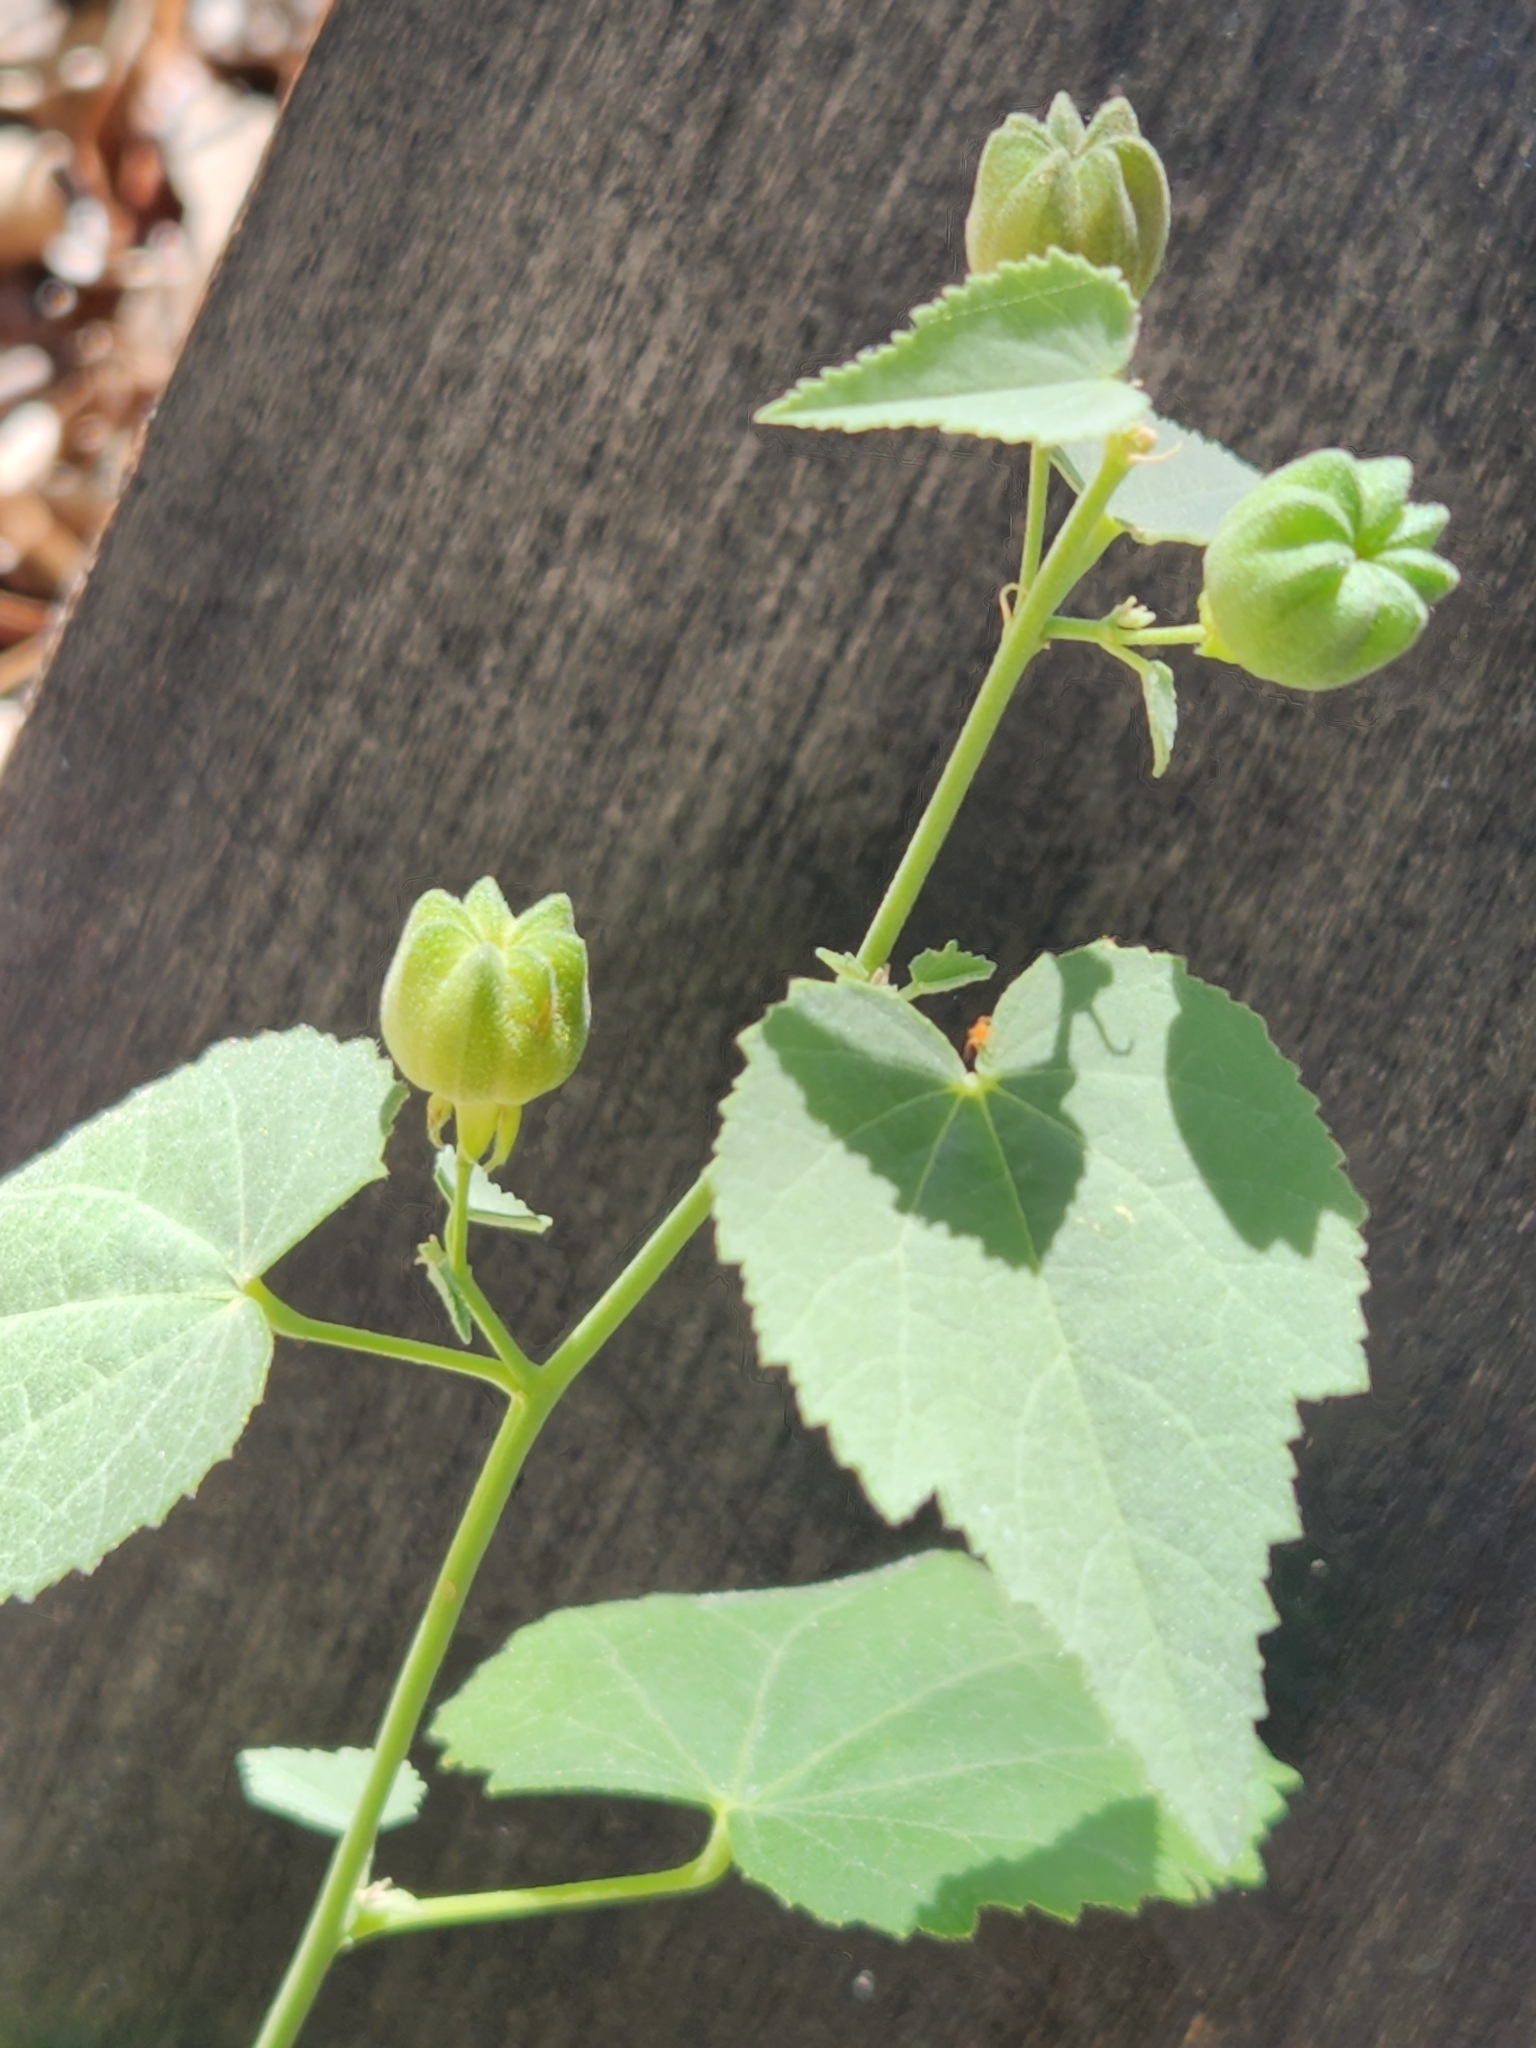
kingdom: Plantae
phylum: Tracheophyta
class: Magnoliopsida
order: Malvales
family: Malvaceae
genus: Abutilon
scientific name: Abutilon fruticosum
